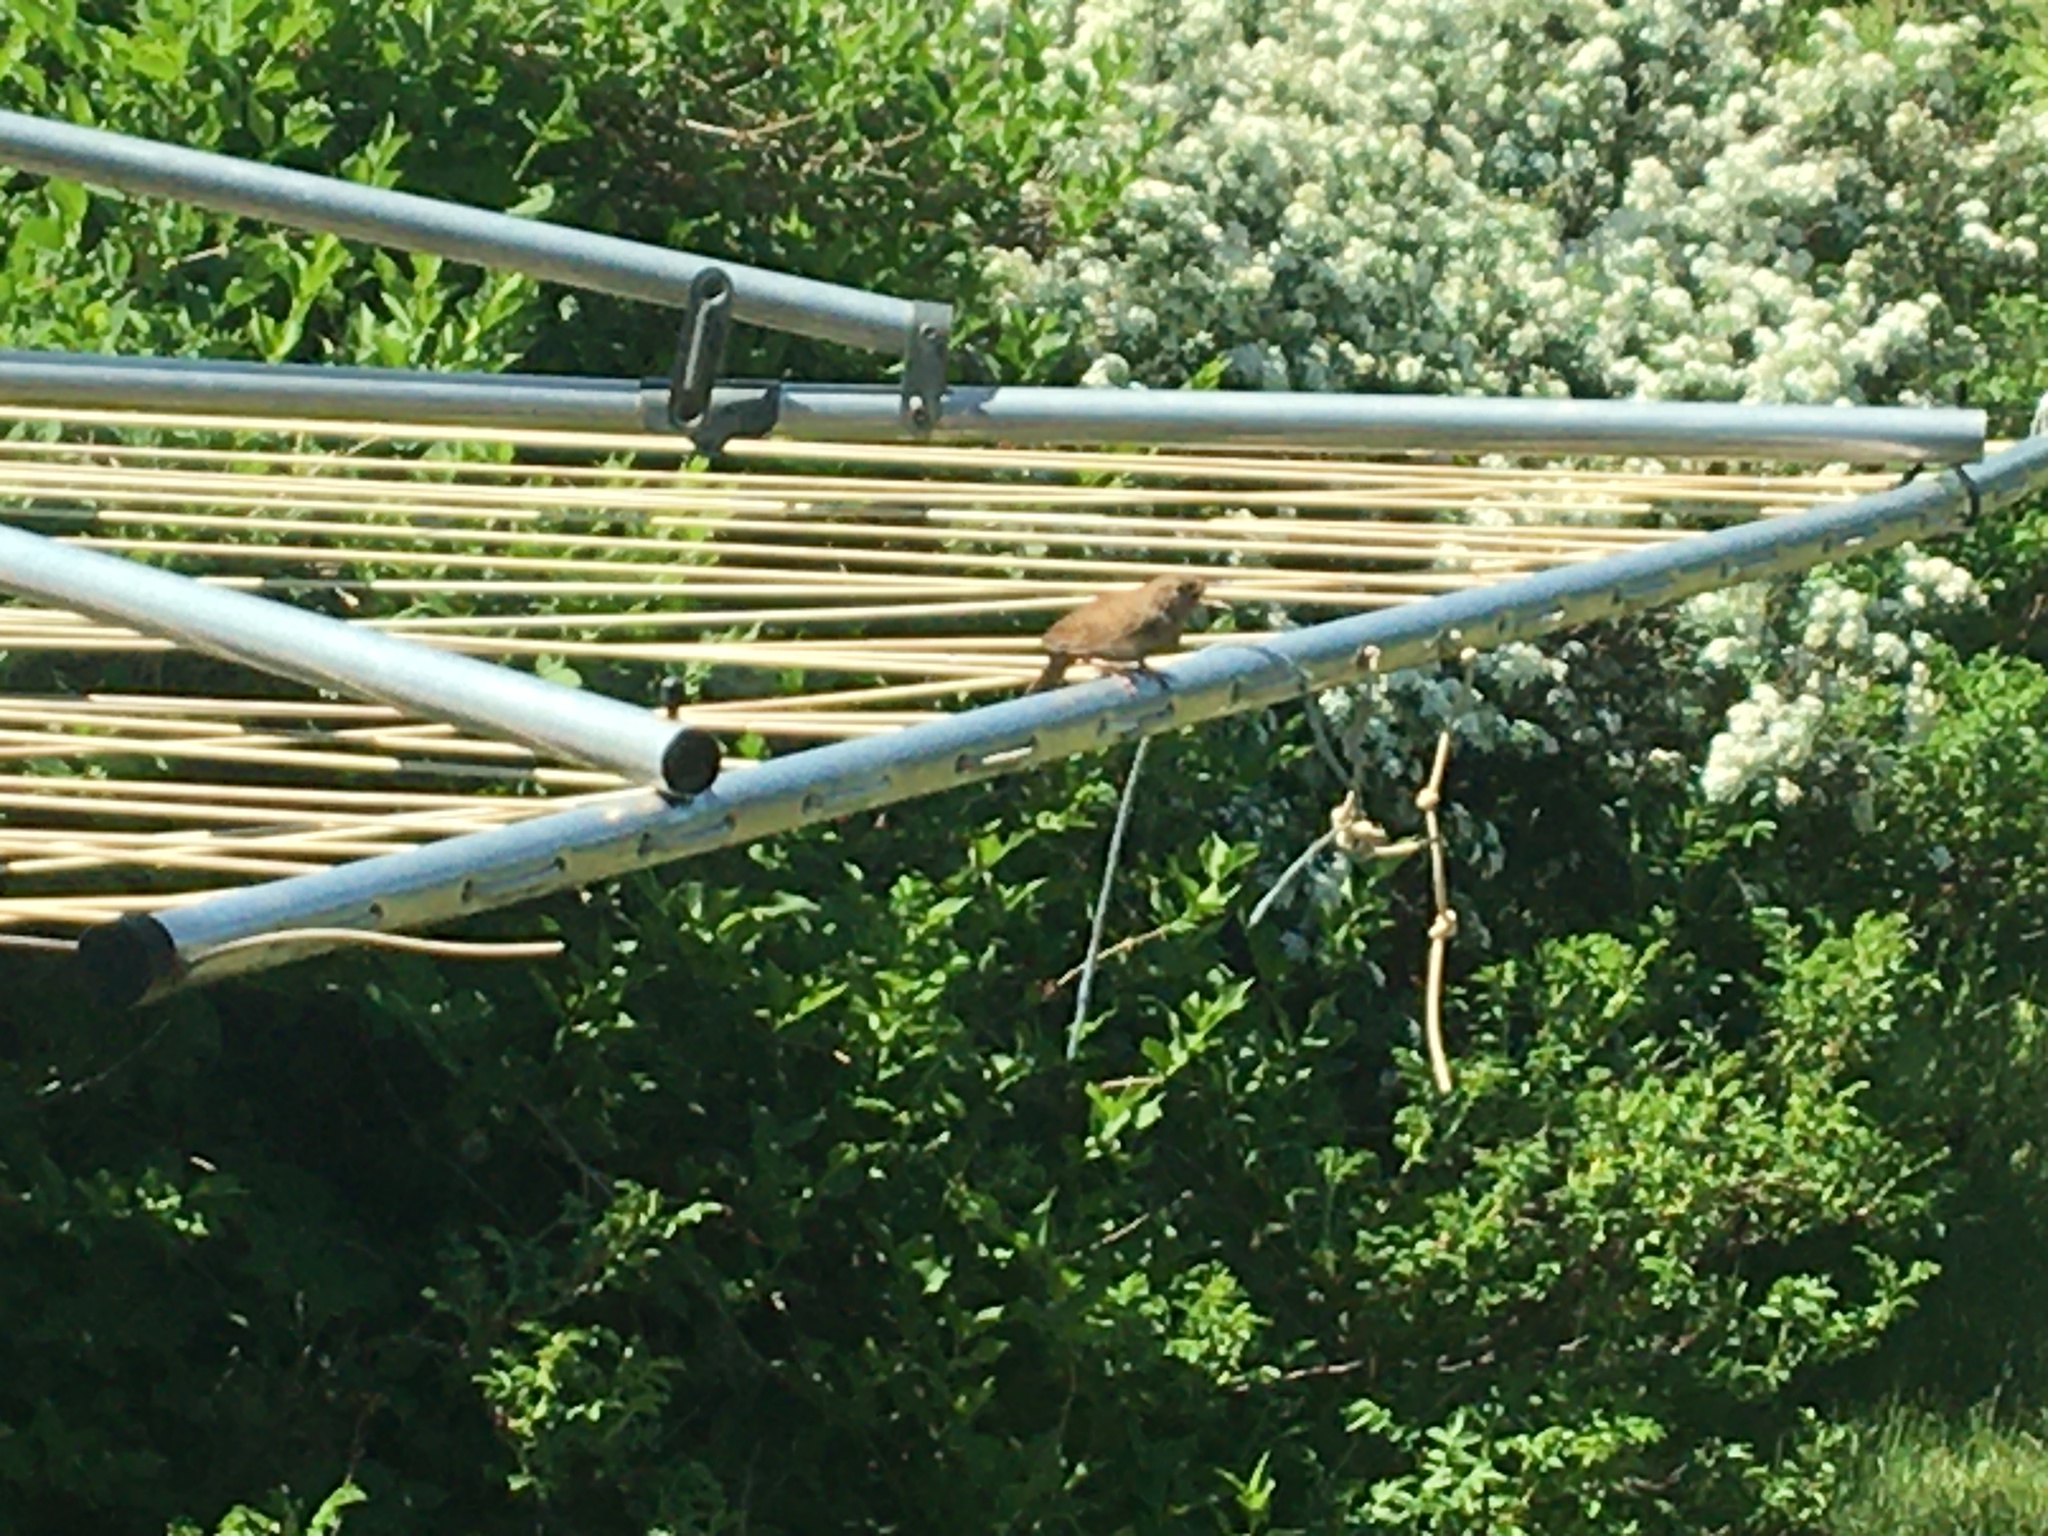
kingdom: Animalia
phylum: Chordata
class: Aves
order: Passeriformes
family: Troglodytidae
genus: Troglodytes
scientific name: Troglodytes aedon
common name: House wren
